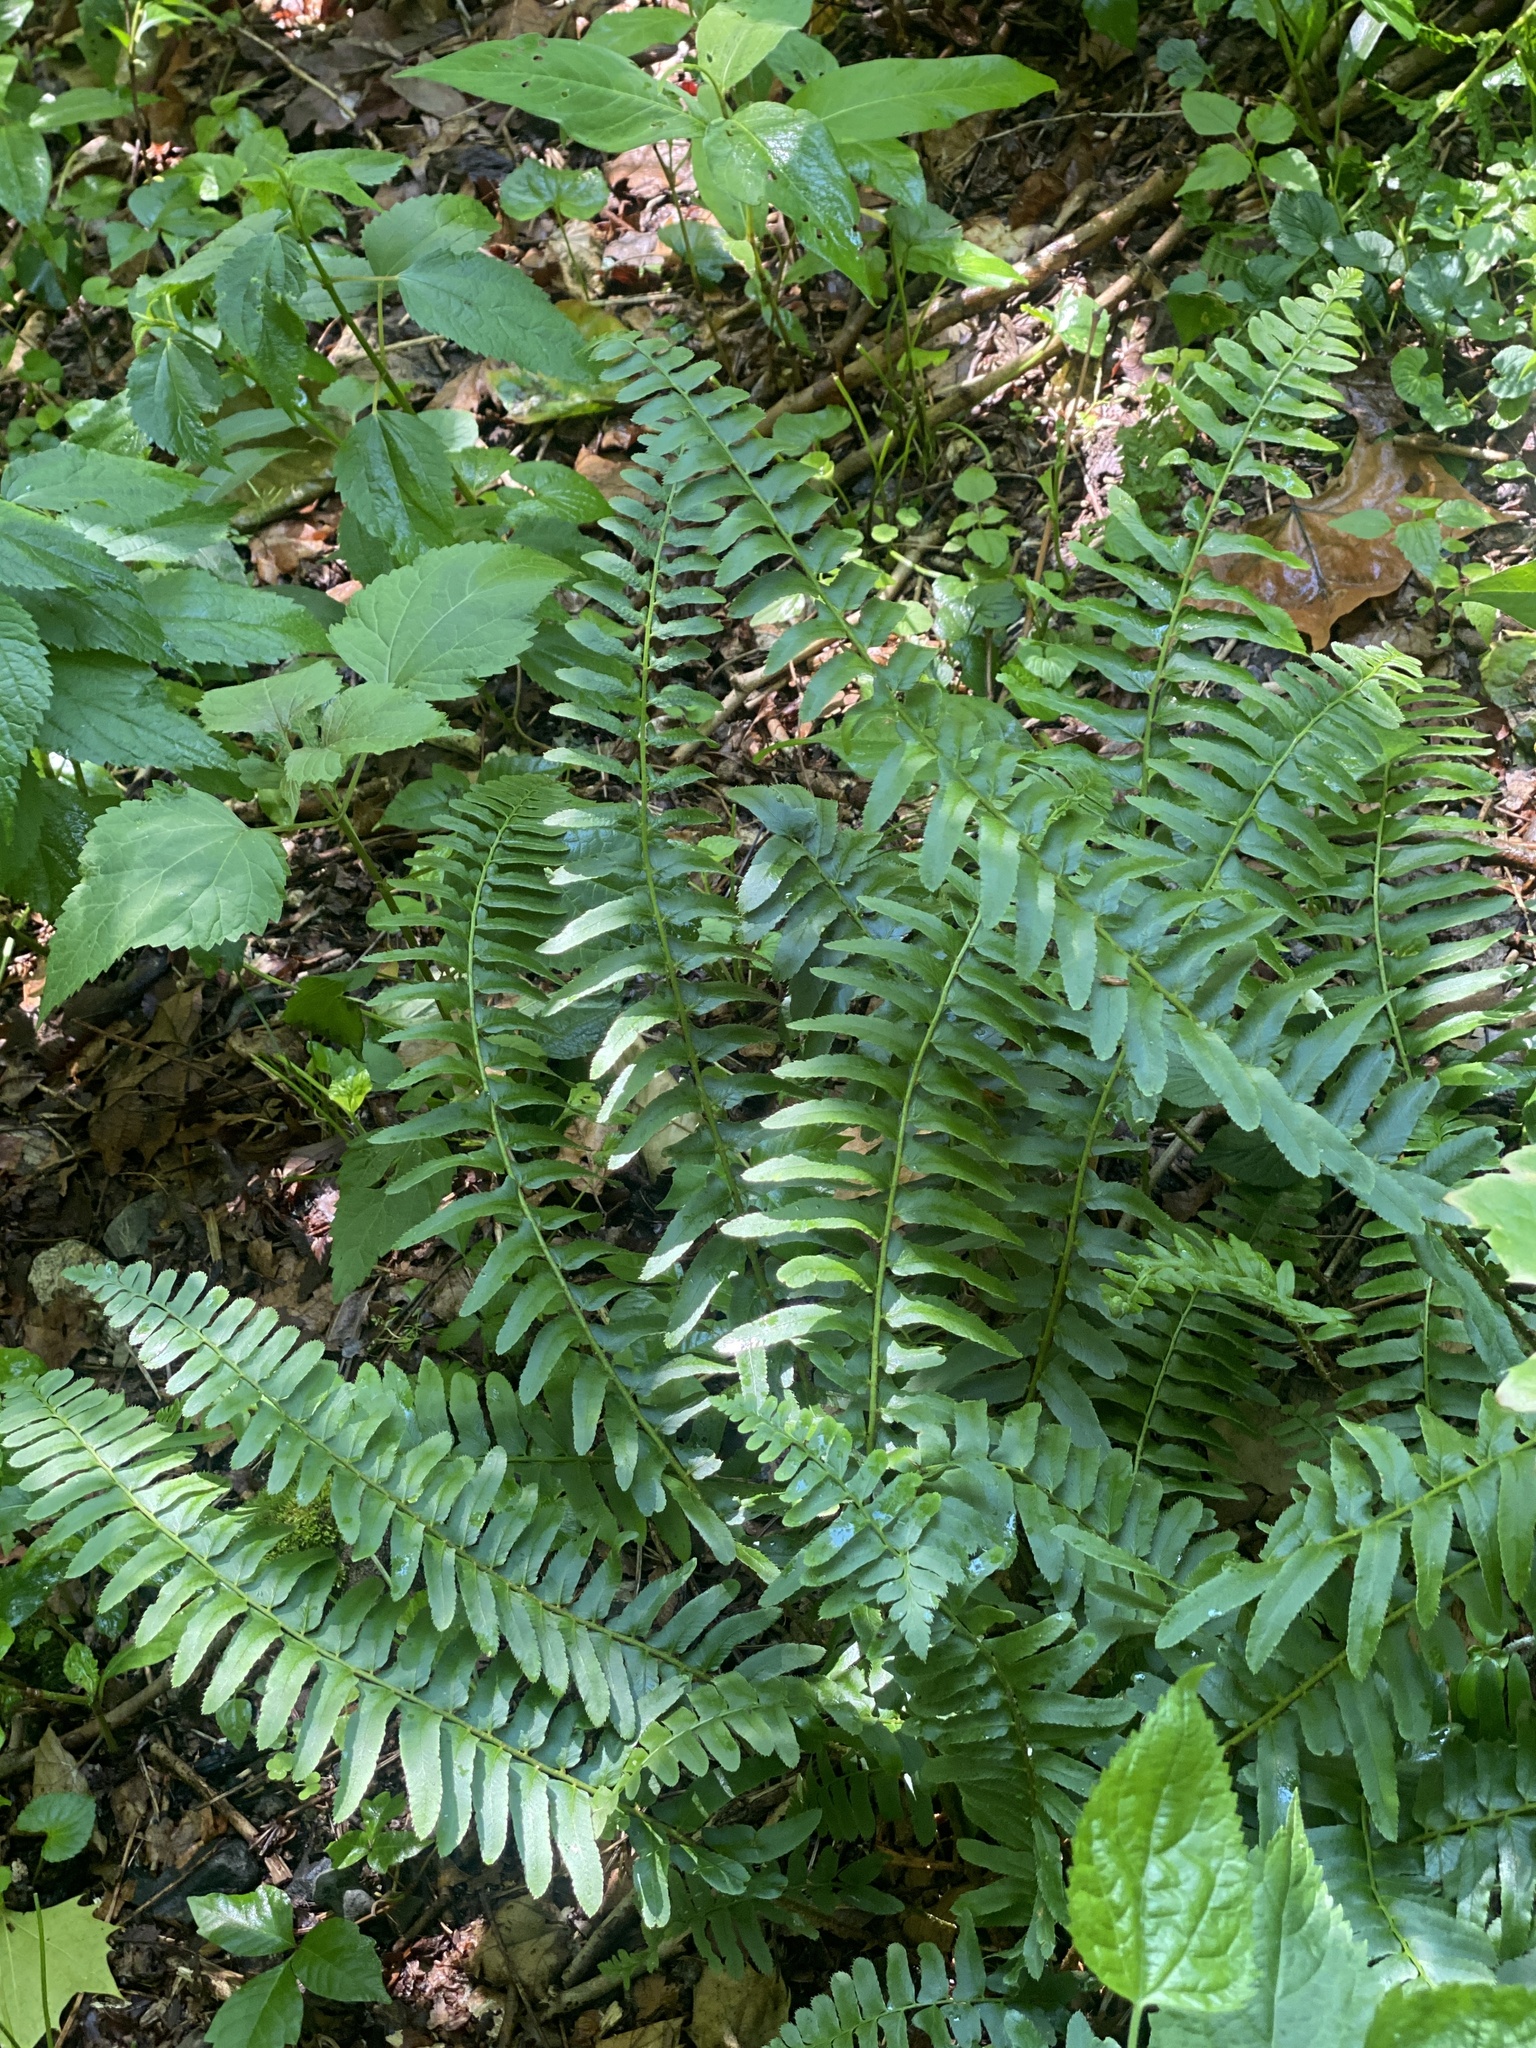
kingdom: Plantae
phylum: Tracheophyta
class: Polypodiopsida
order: Polypodiales
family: Dryopteridaceae
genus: Polystichum
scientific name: Polystichum acrostichoides
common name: Christmas fern
